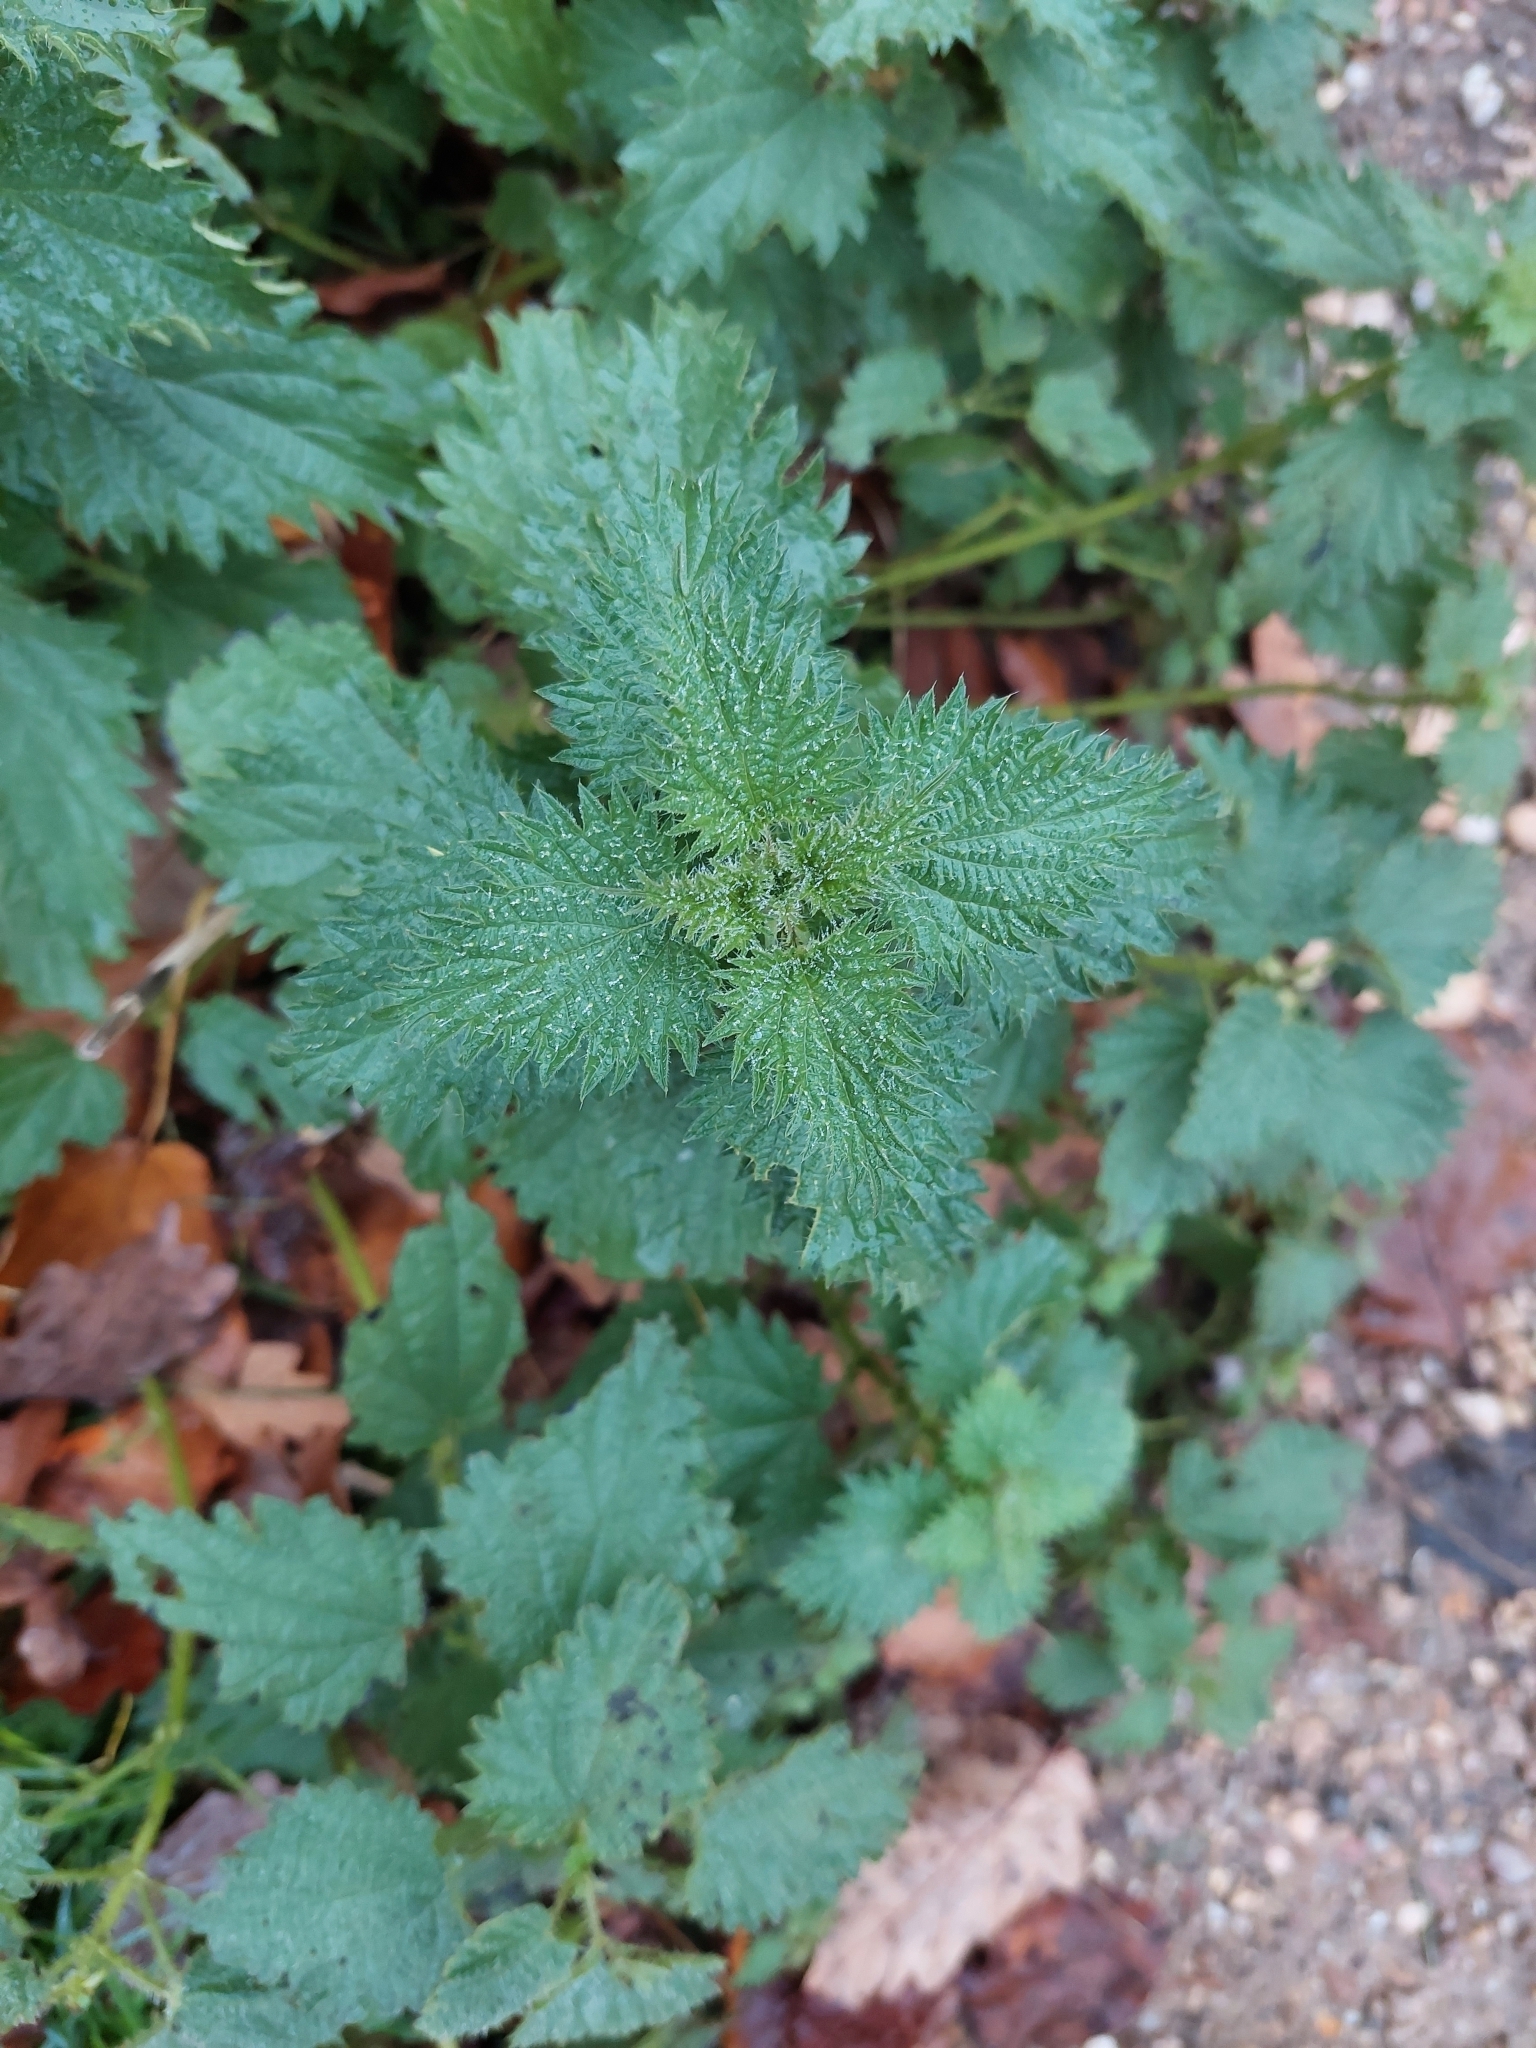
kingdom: Plantae
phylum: Tracheophyta
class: Magnoliopsida
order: Rosales
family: Urticaceae
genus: Urtica
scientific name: Urtica dioica
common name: Common nettle
